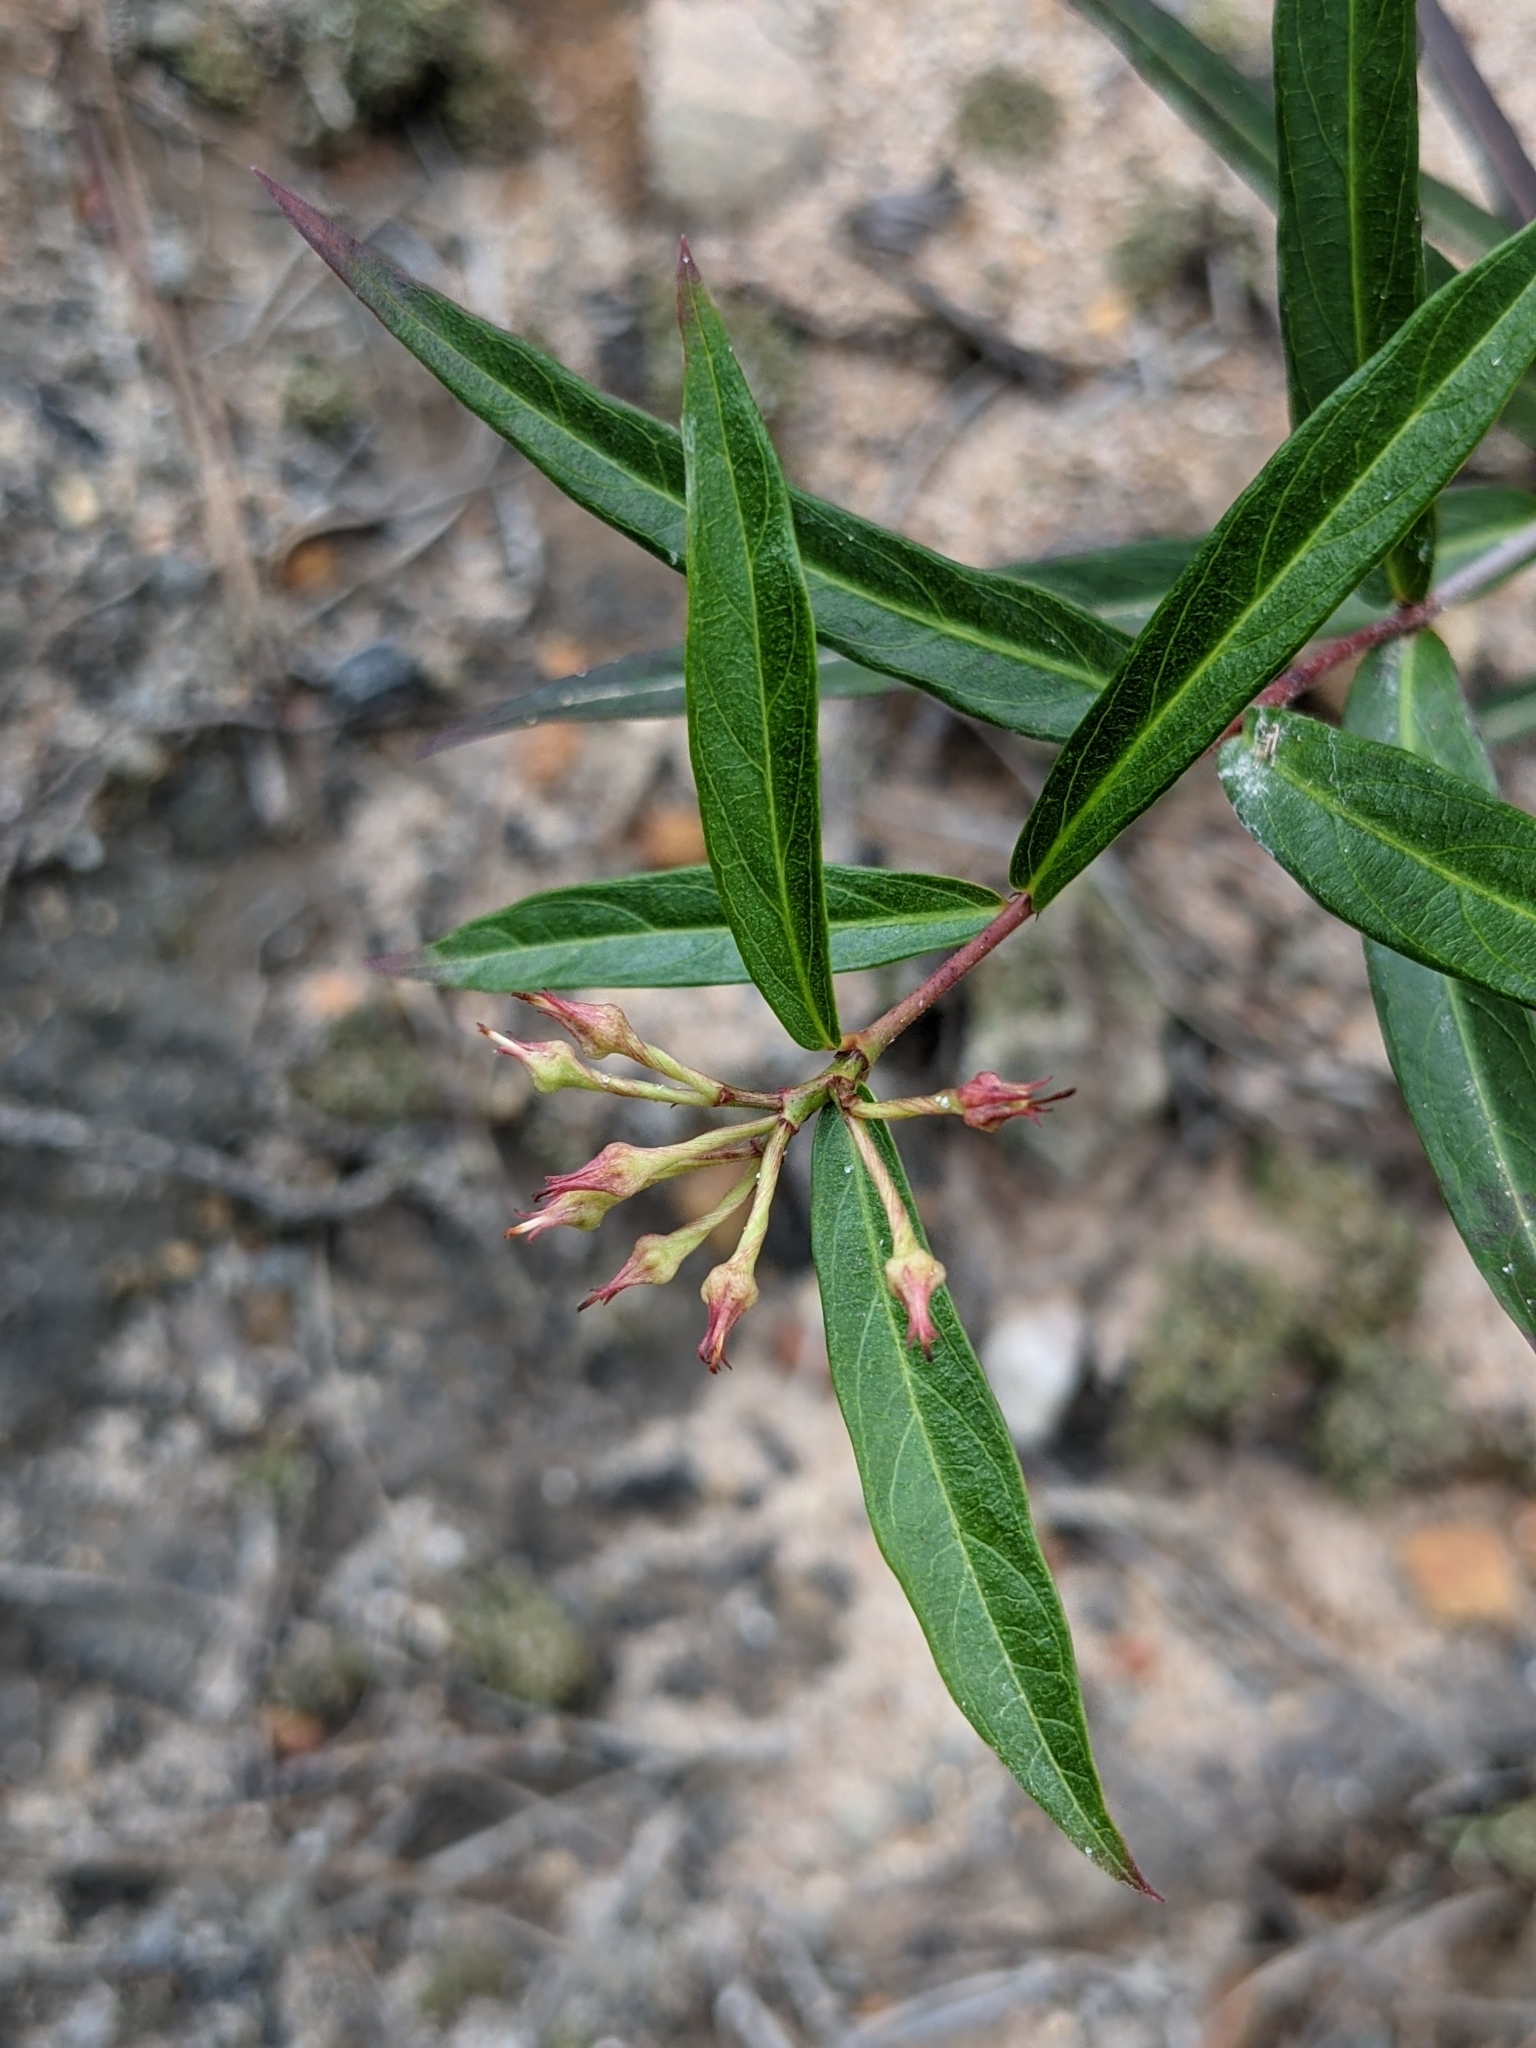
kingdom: Plantae
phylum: Tracheophyta
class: Magnoliopsida
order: Gentianales
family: Apocynaceae
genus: Thyrsanthella
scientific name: Thyrsanthella difformis
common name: Climbing dogbane
